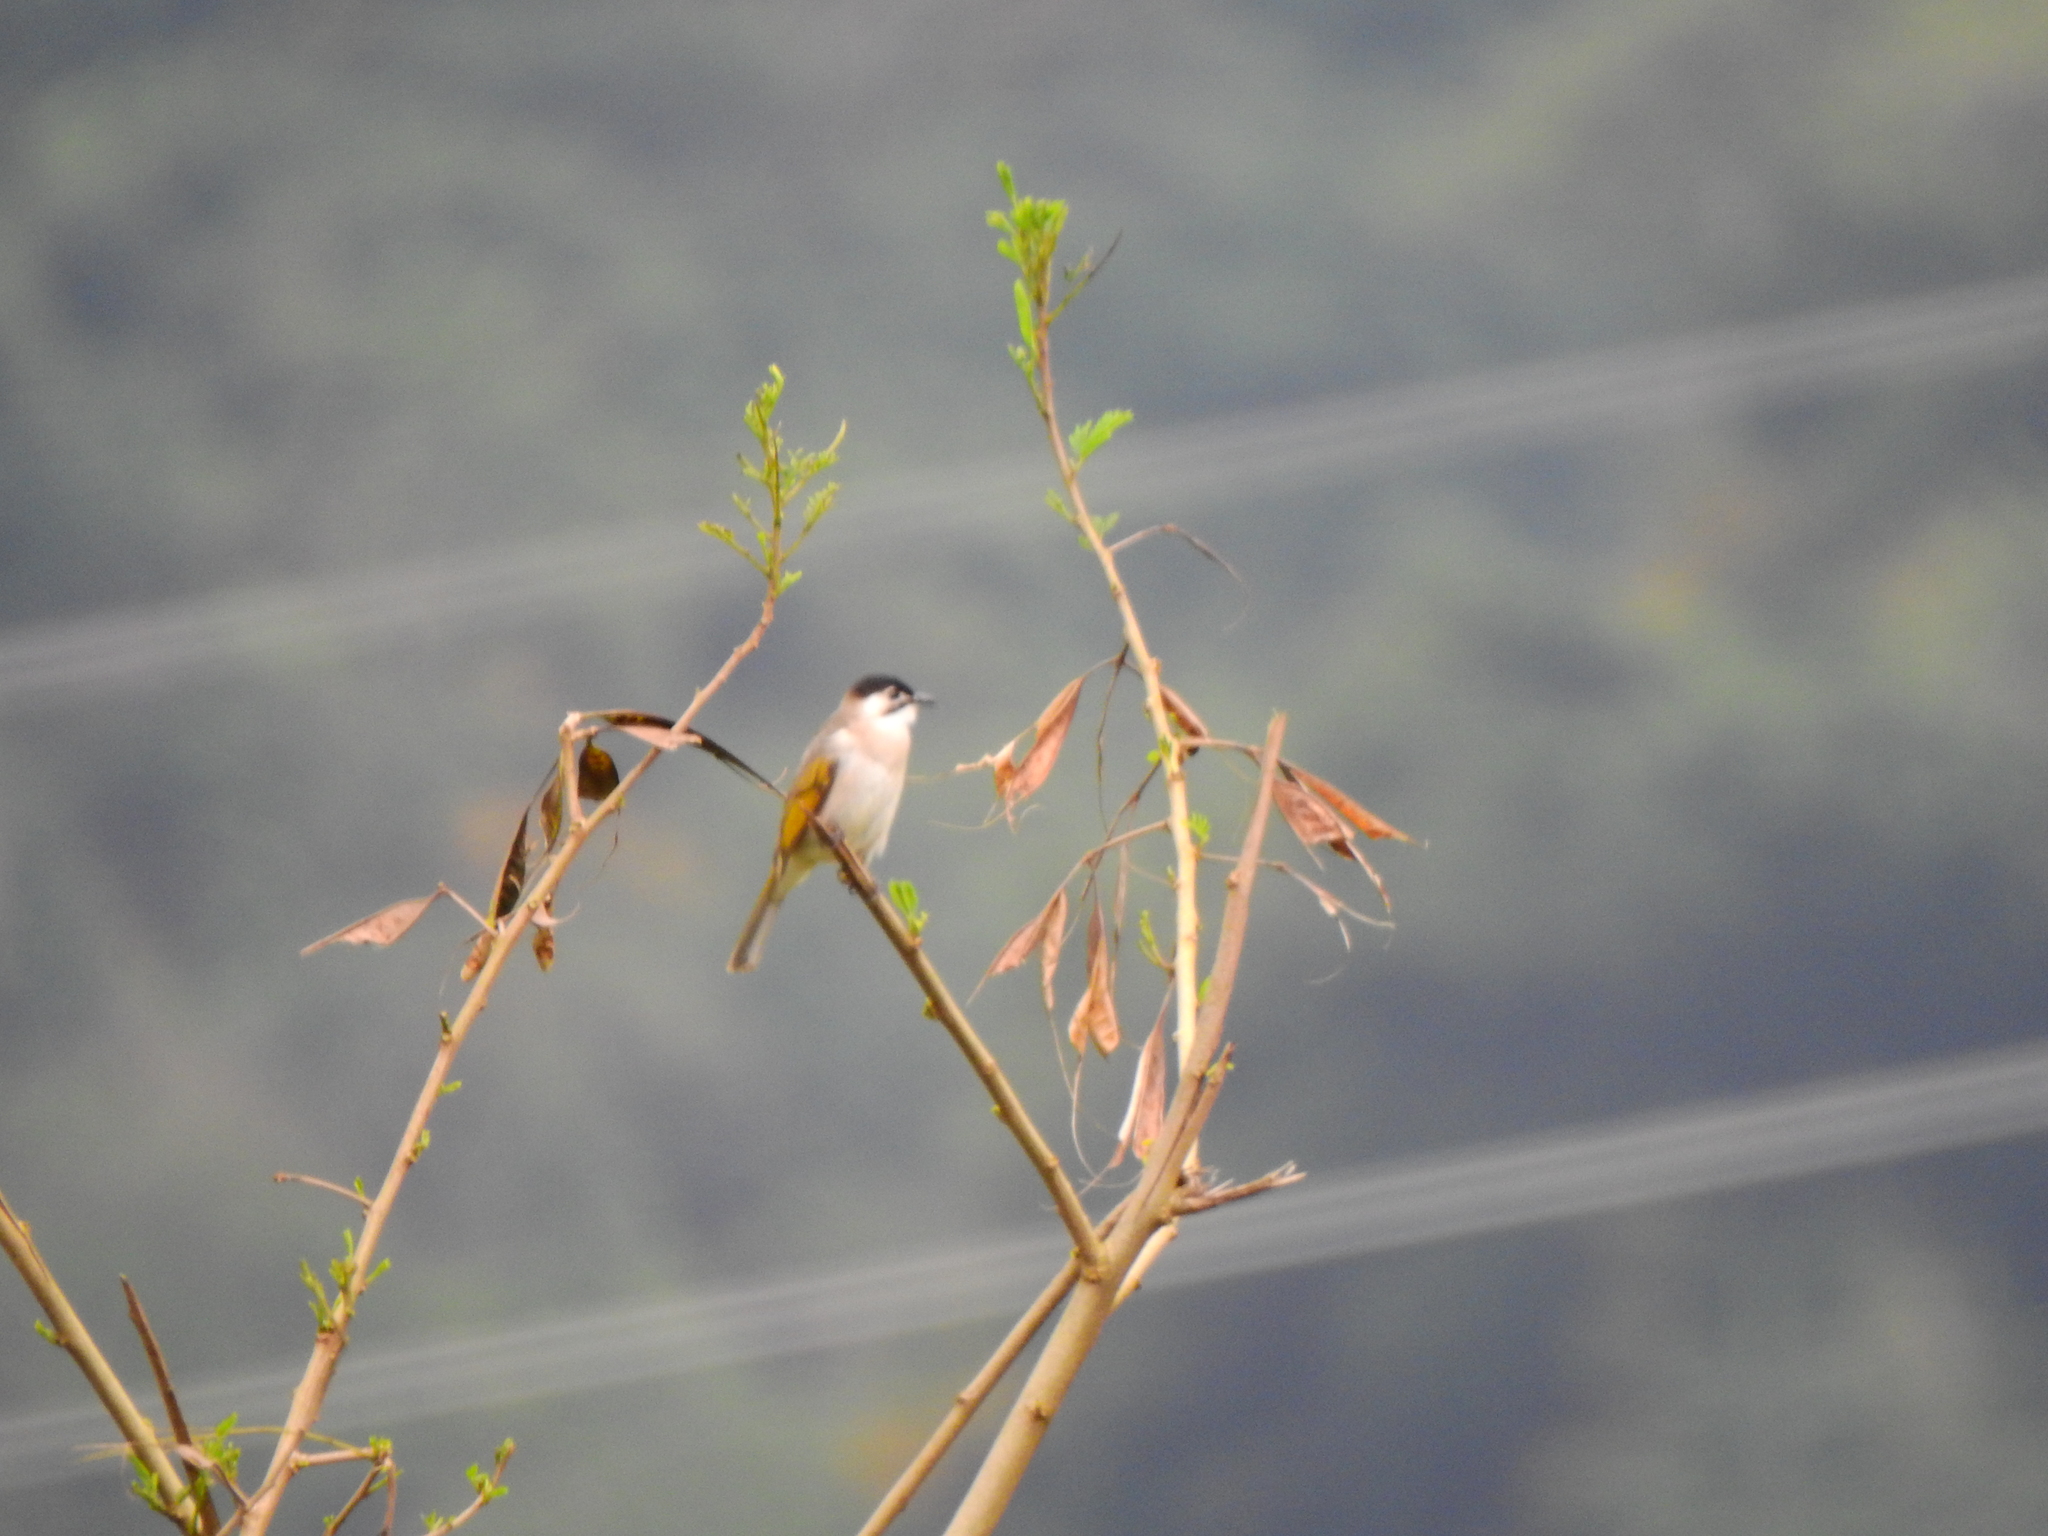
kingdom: Animalia
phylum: Chordata
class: Aves
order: Passeriformes
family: Pycnonotidae
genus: Pycnonotus
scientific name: Pycnonotus taivanus
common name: Styan's bulbul
